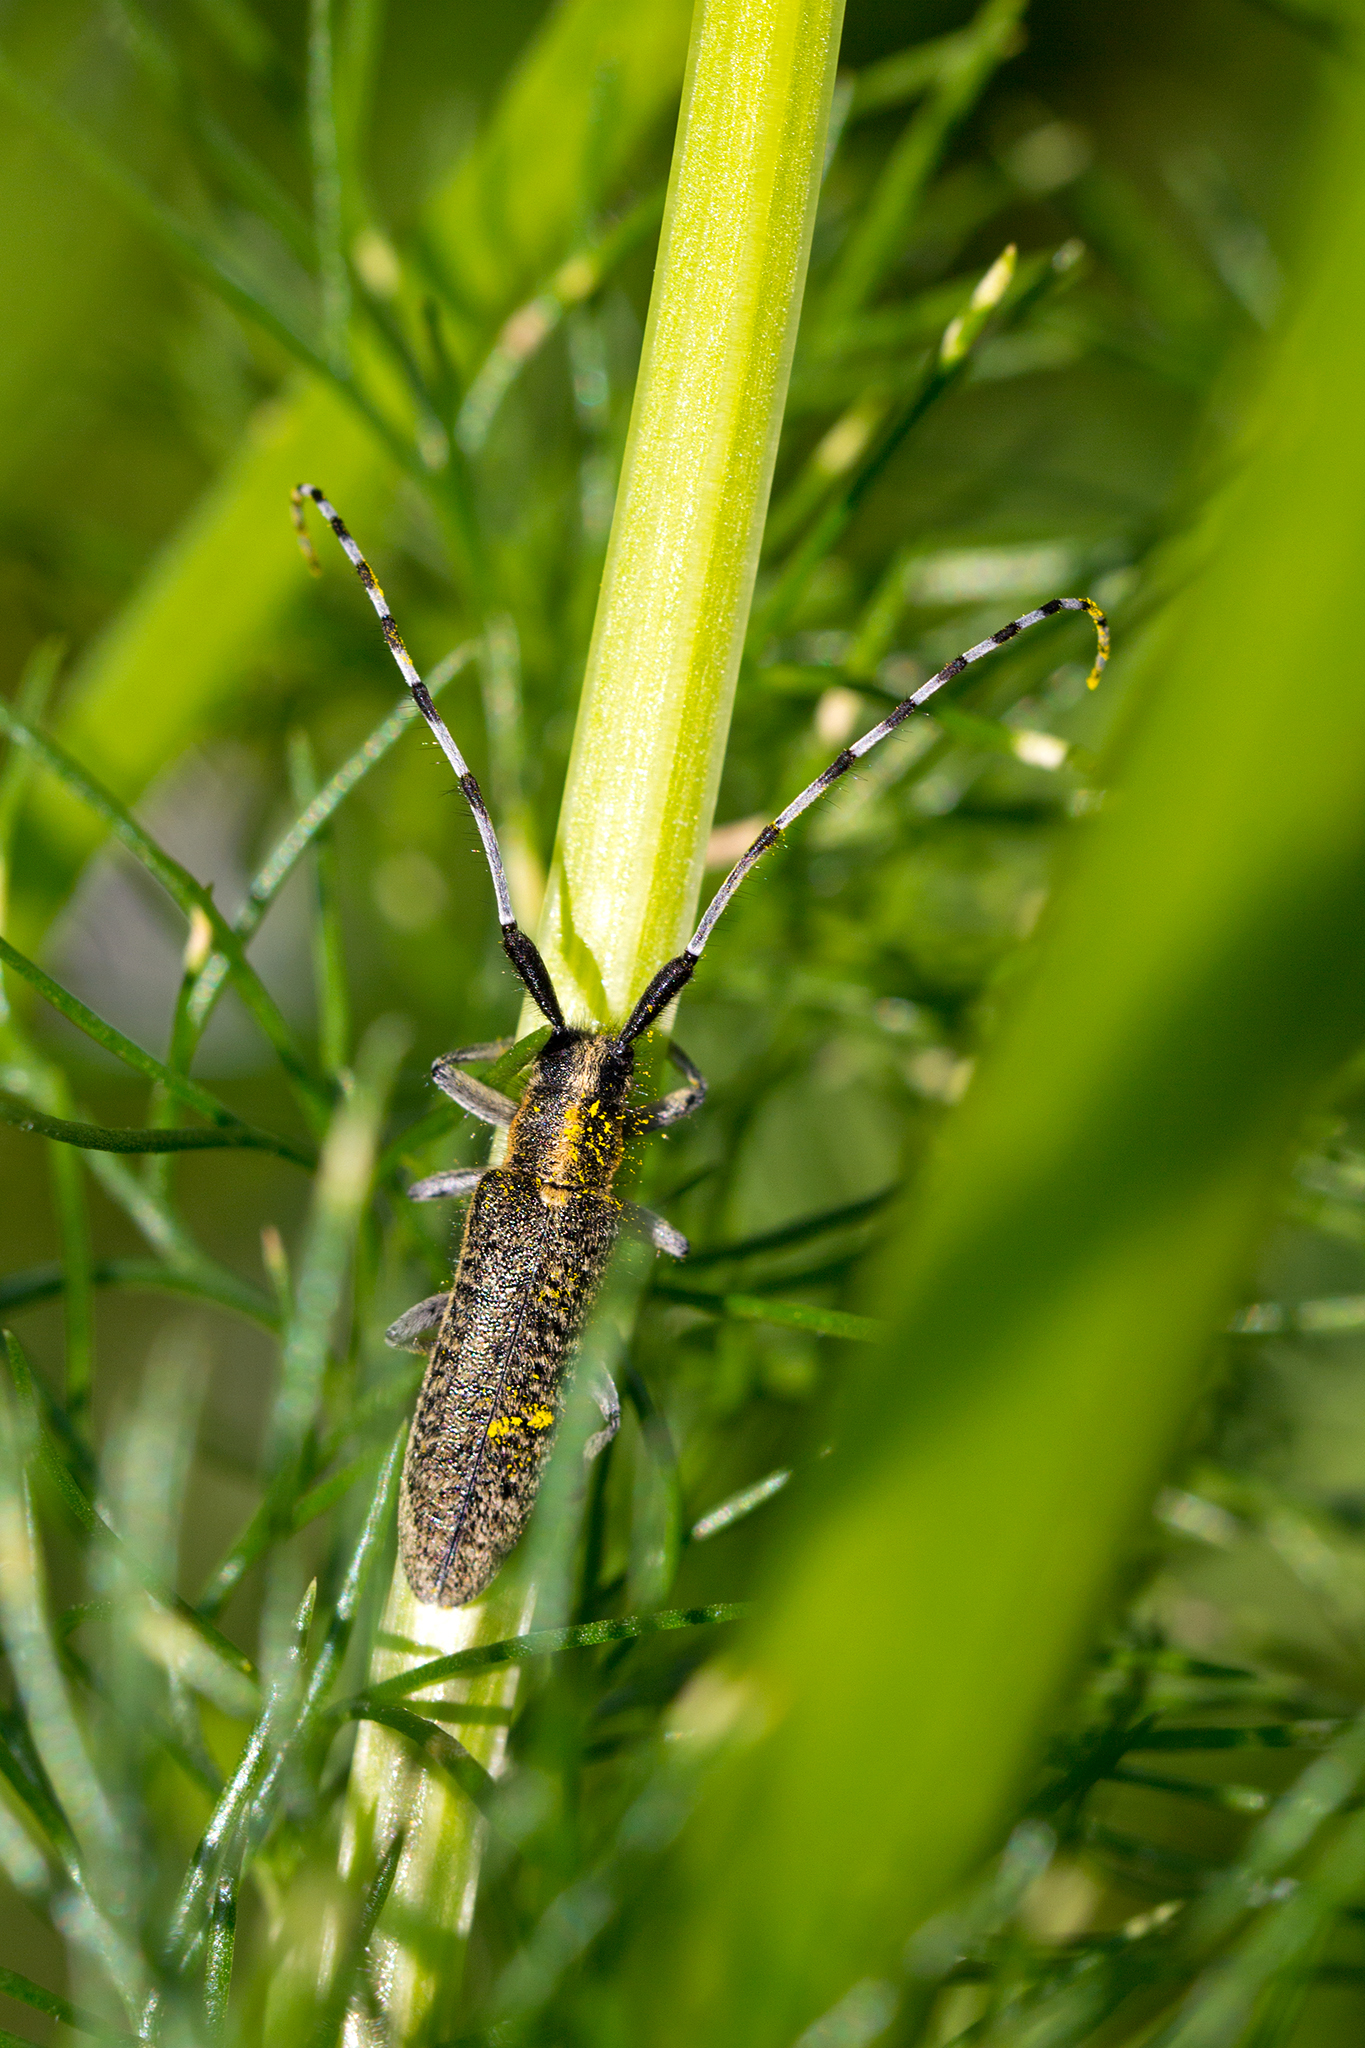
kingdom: Animalia
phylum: Arthropoda
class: Insecta
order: Coleoptera
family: Cerambycidae
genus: Agapanthia
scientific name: Agapanthia villosoviridescens
